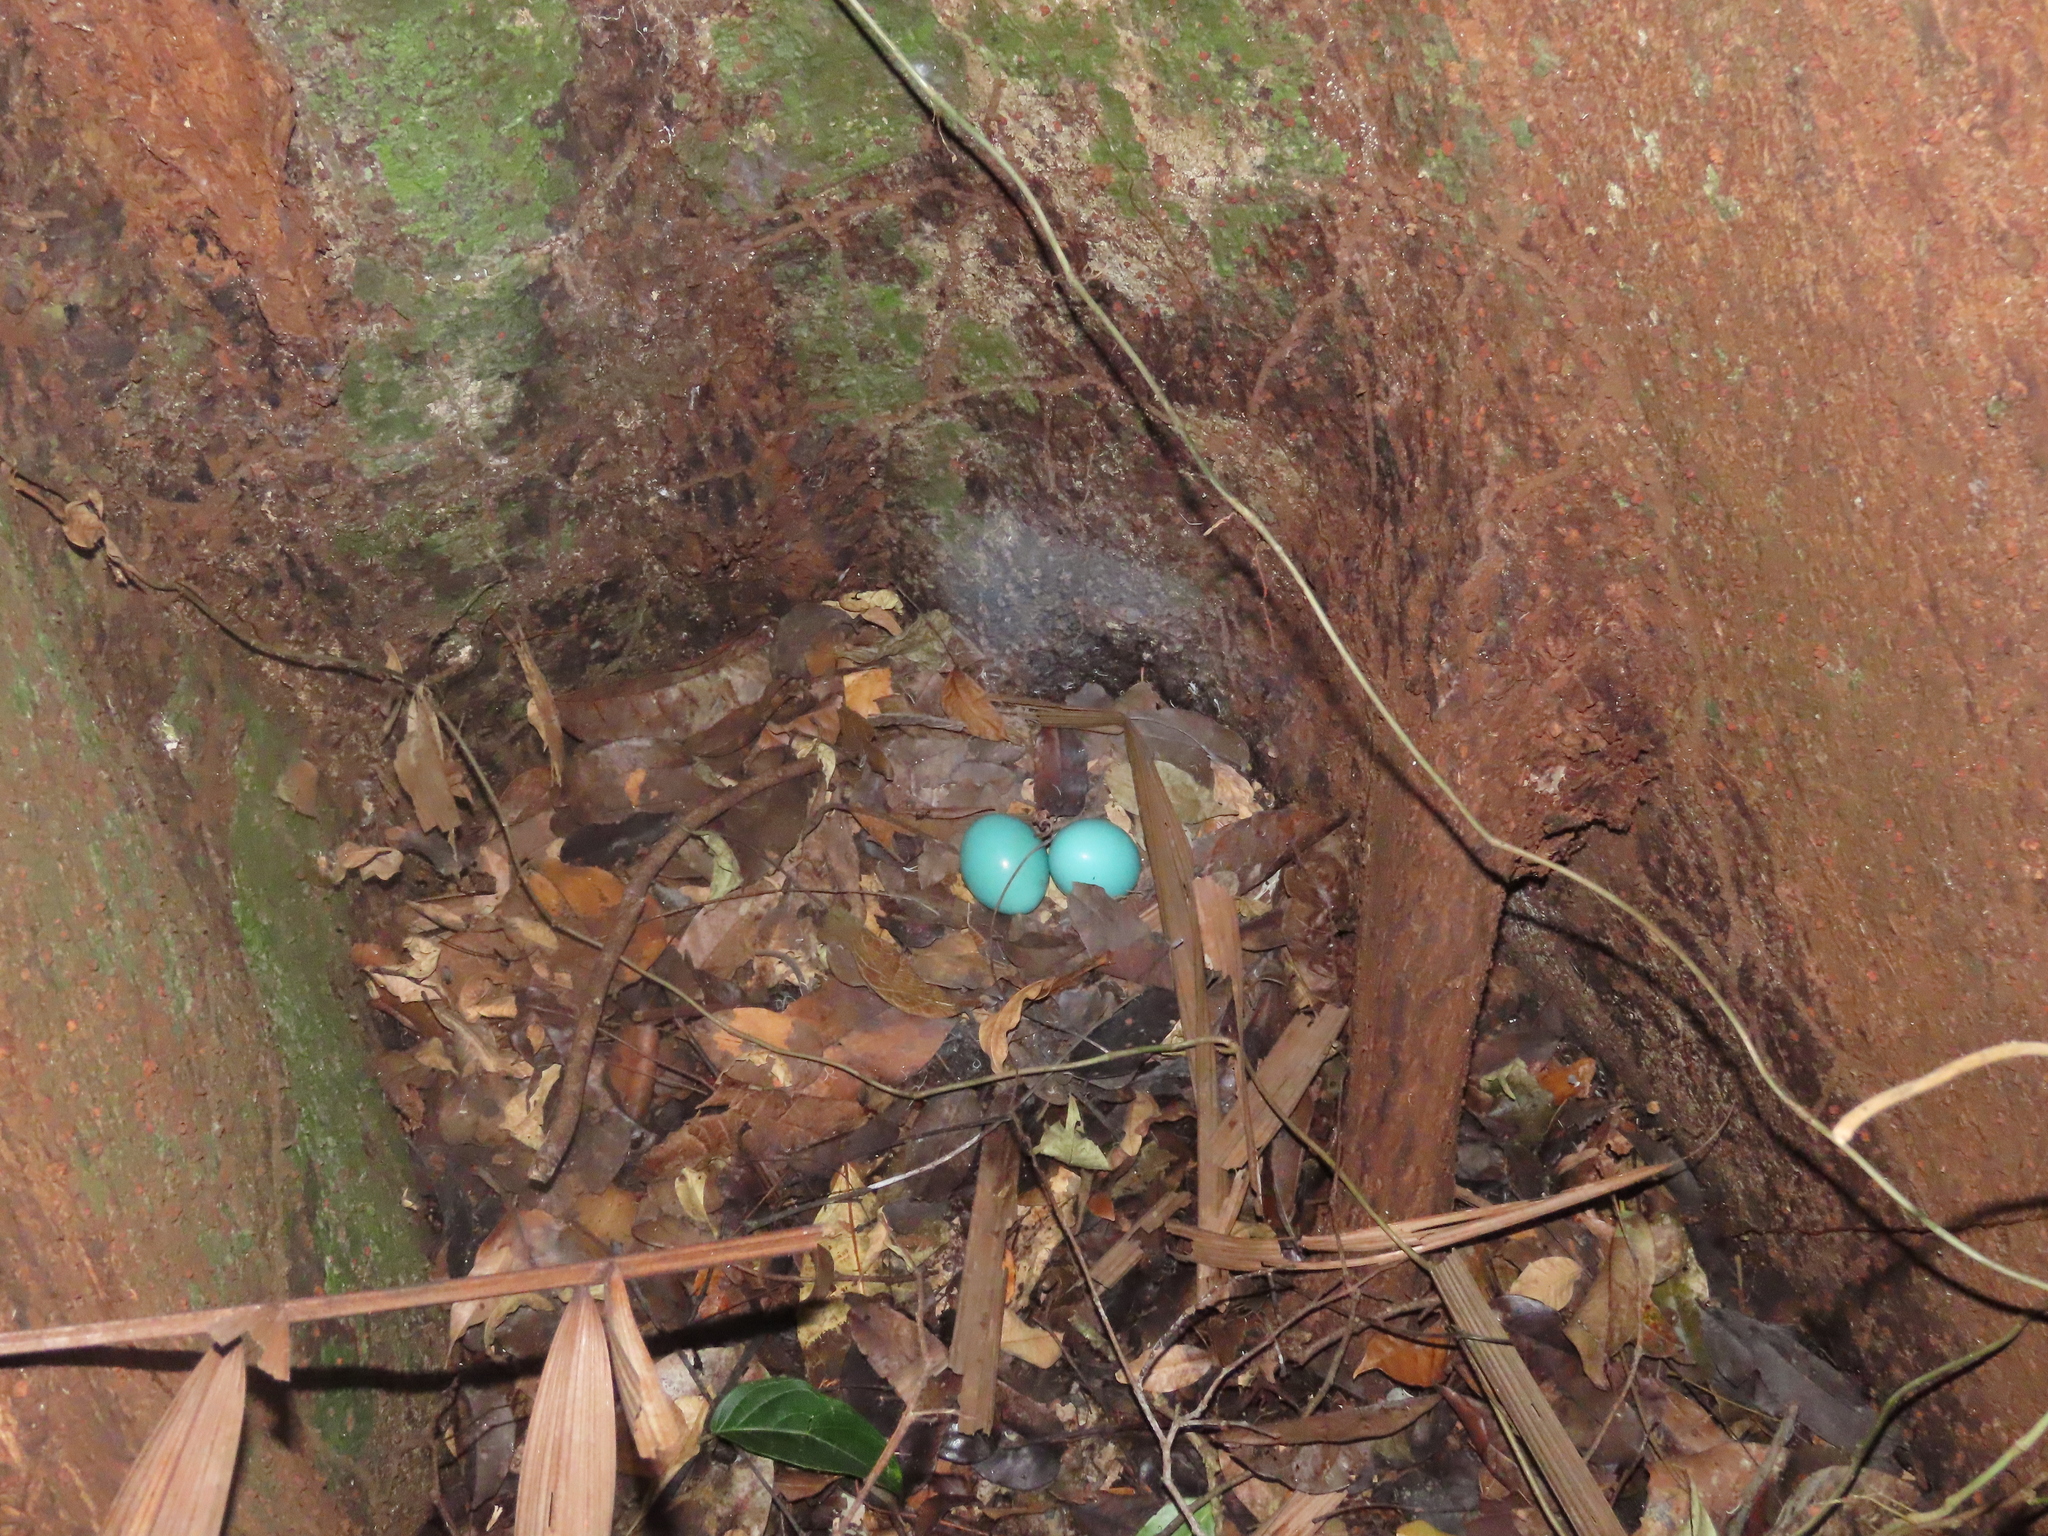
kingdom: Animalia
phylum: Chordata
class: Aves
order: Tinamiformes
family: Tinamidae
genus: Tinamus
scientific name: Tinamus major
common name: Great tinamou
